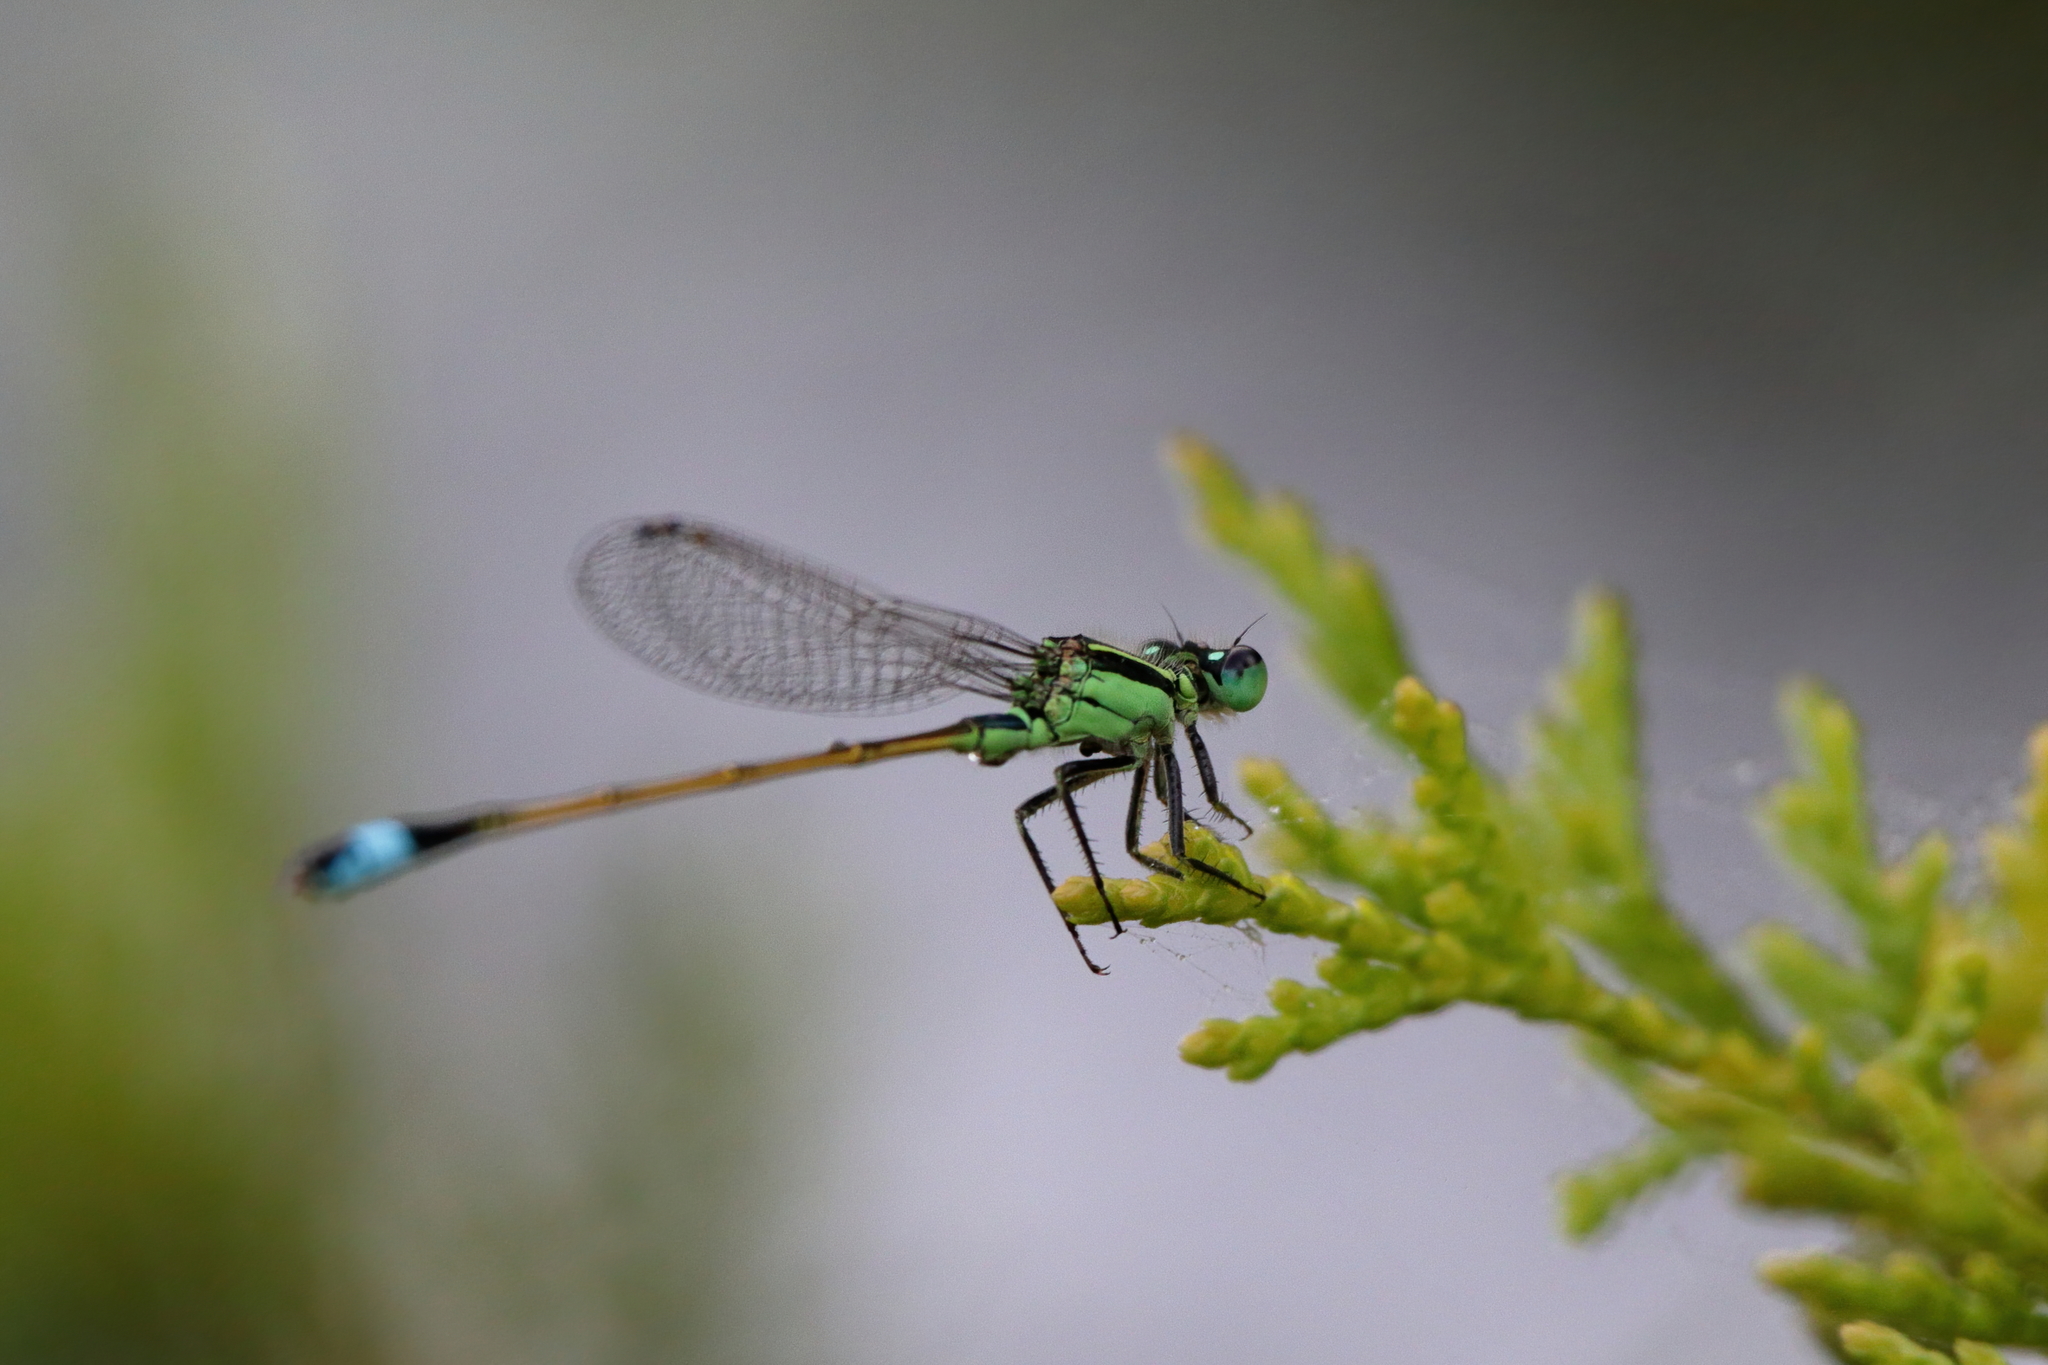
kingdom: Animalia
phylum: Arthropoda
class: Insecta
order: Odonata
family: Coenagrionidae
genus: Ischnura
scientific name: Ischnura ramburii
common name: Rambur's forktail
